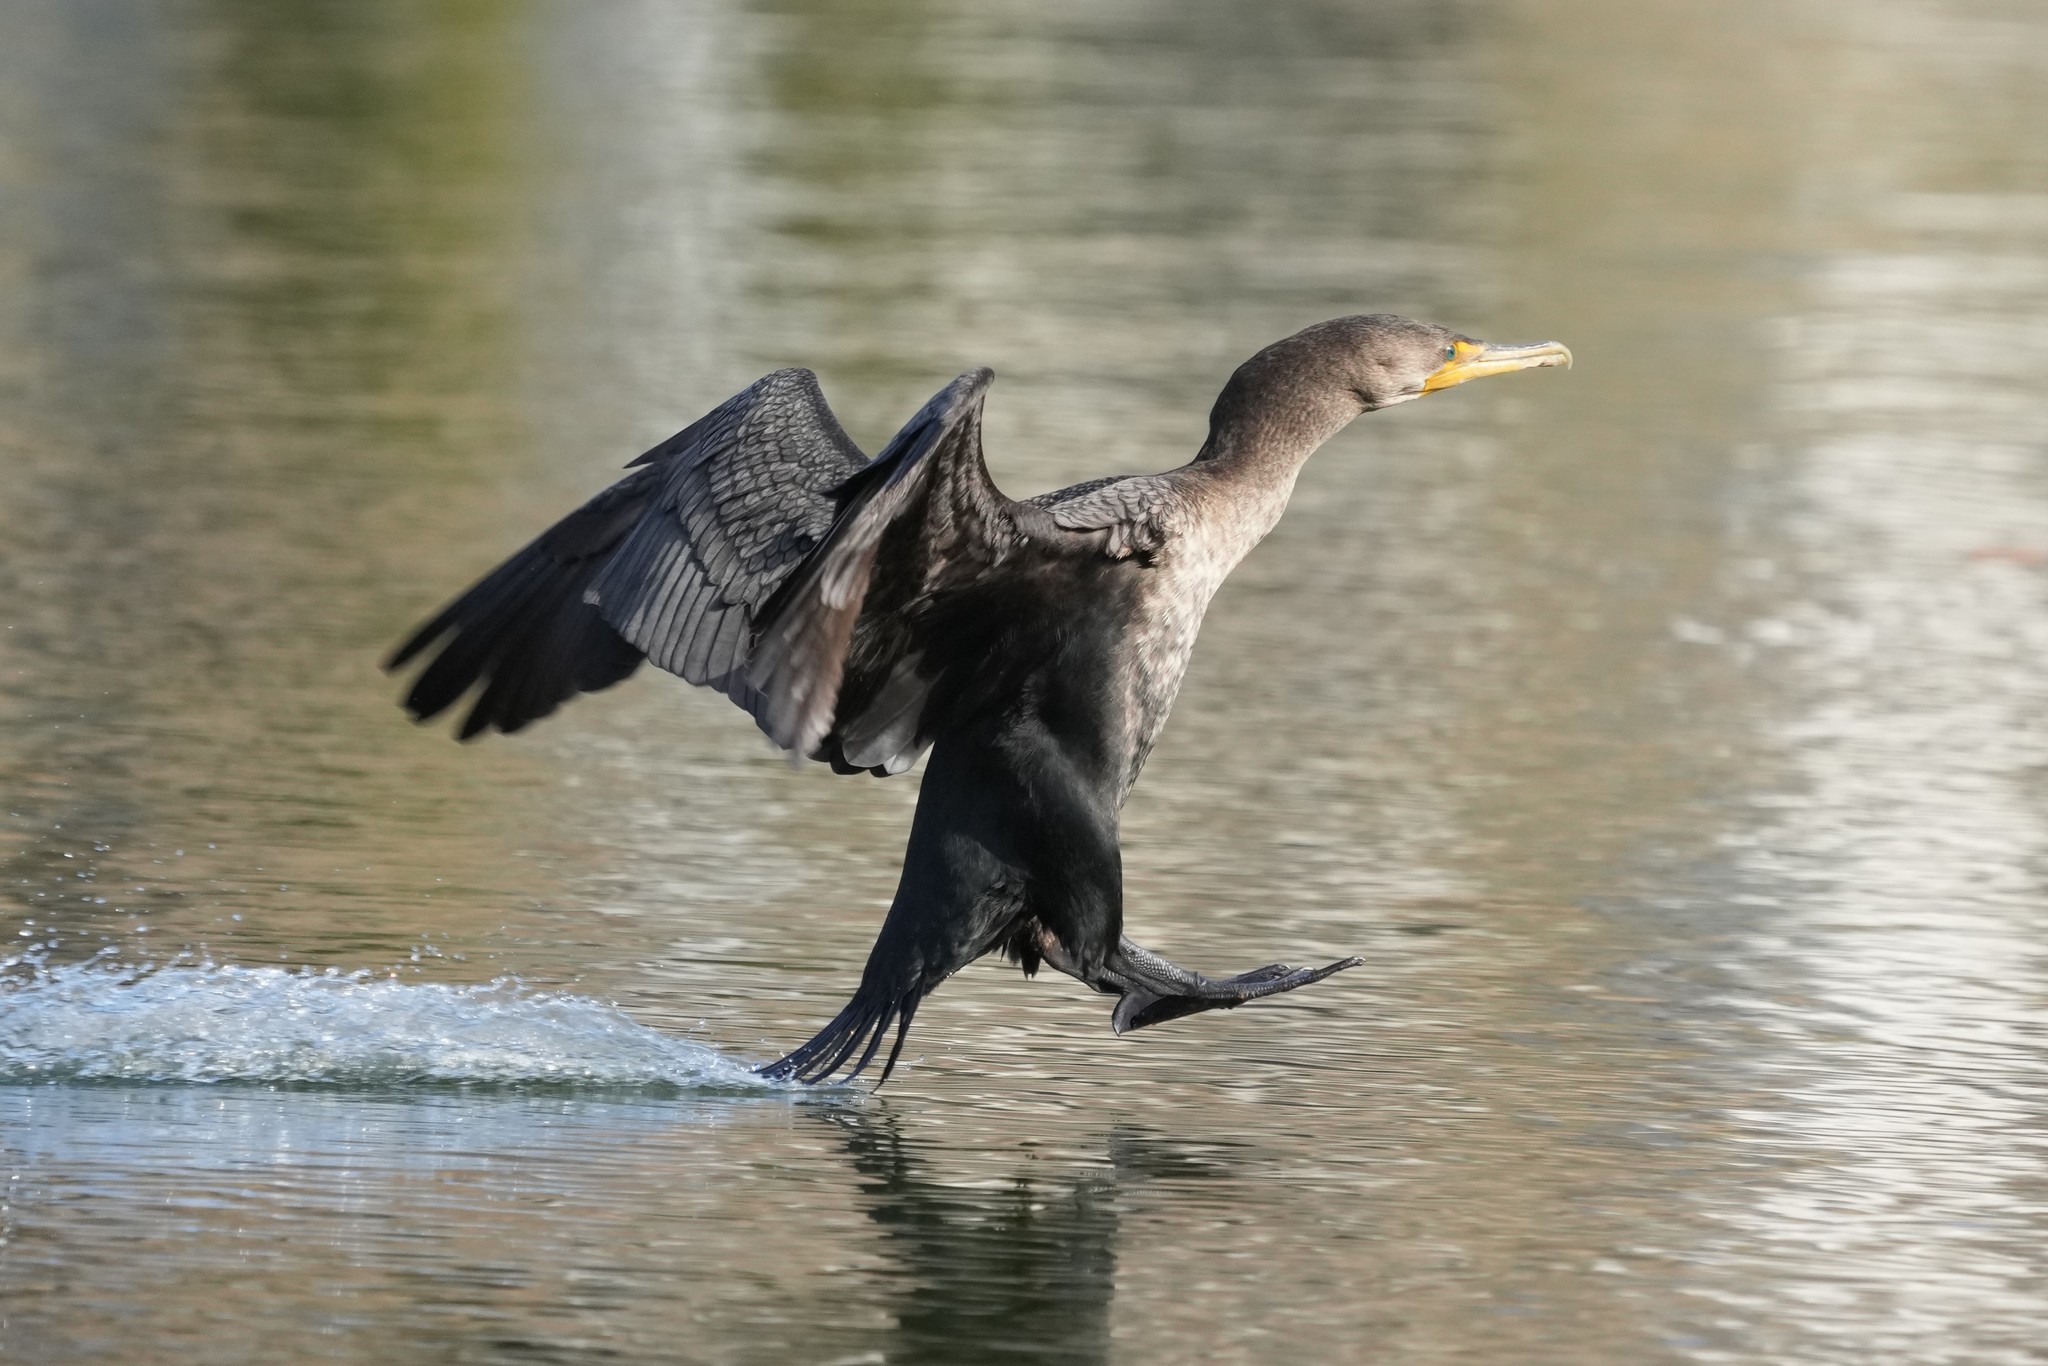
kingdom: Animalia
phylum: Chordata
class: Aves
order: Suliformes
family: Phalacrocoracidae
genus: Phalacrocorax
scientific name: Phalacrocorax auritus
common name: Double-crested cormorant
